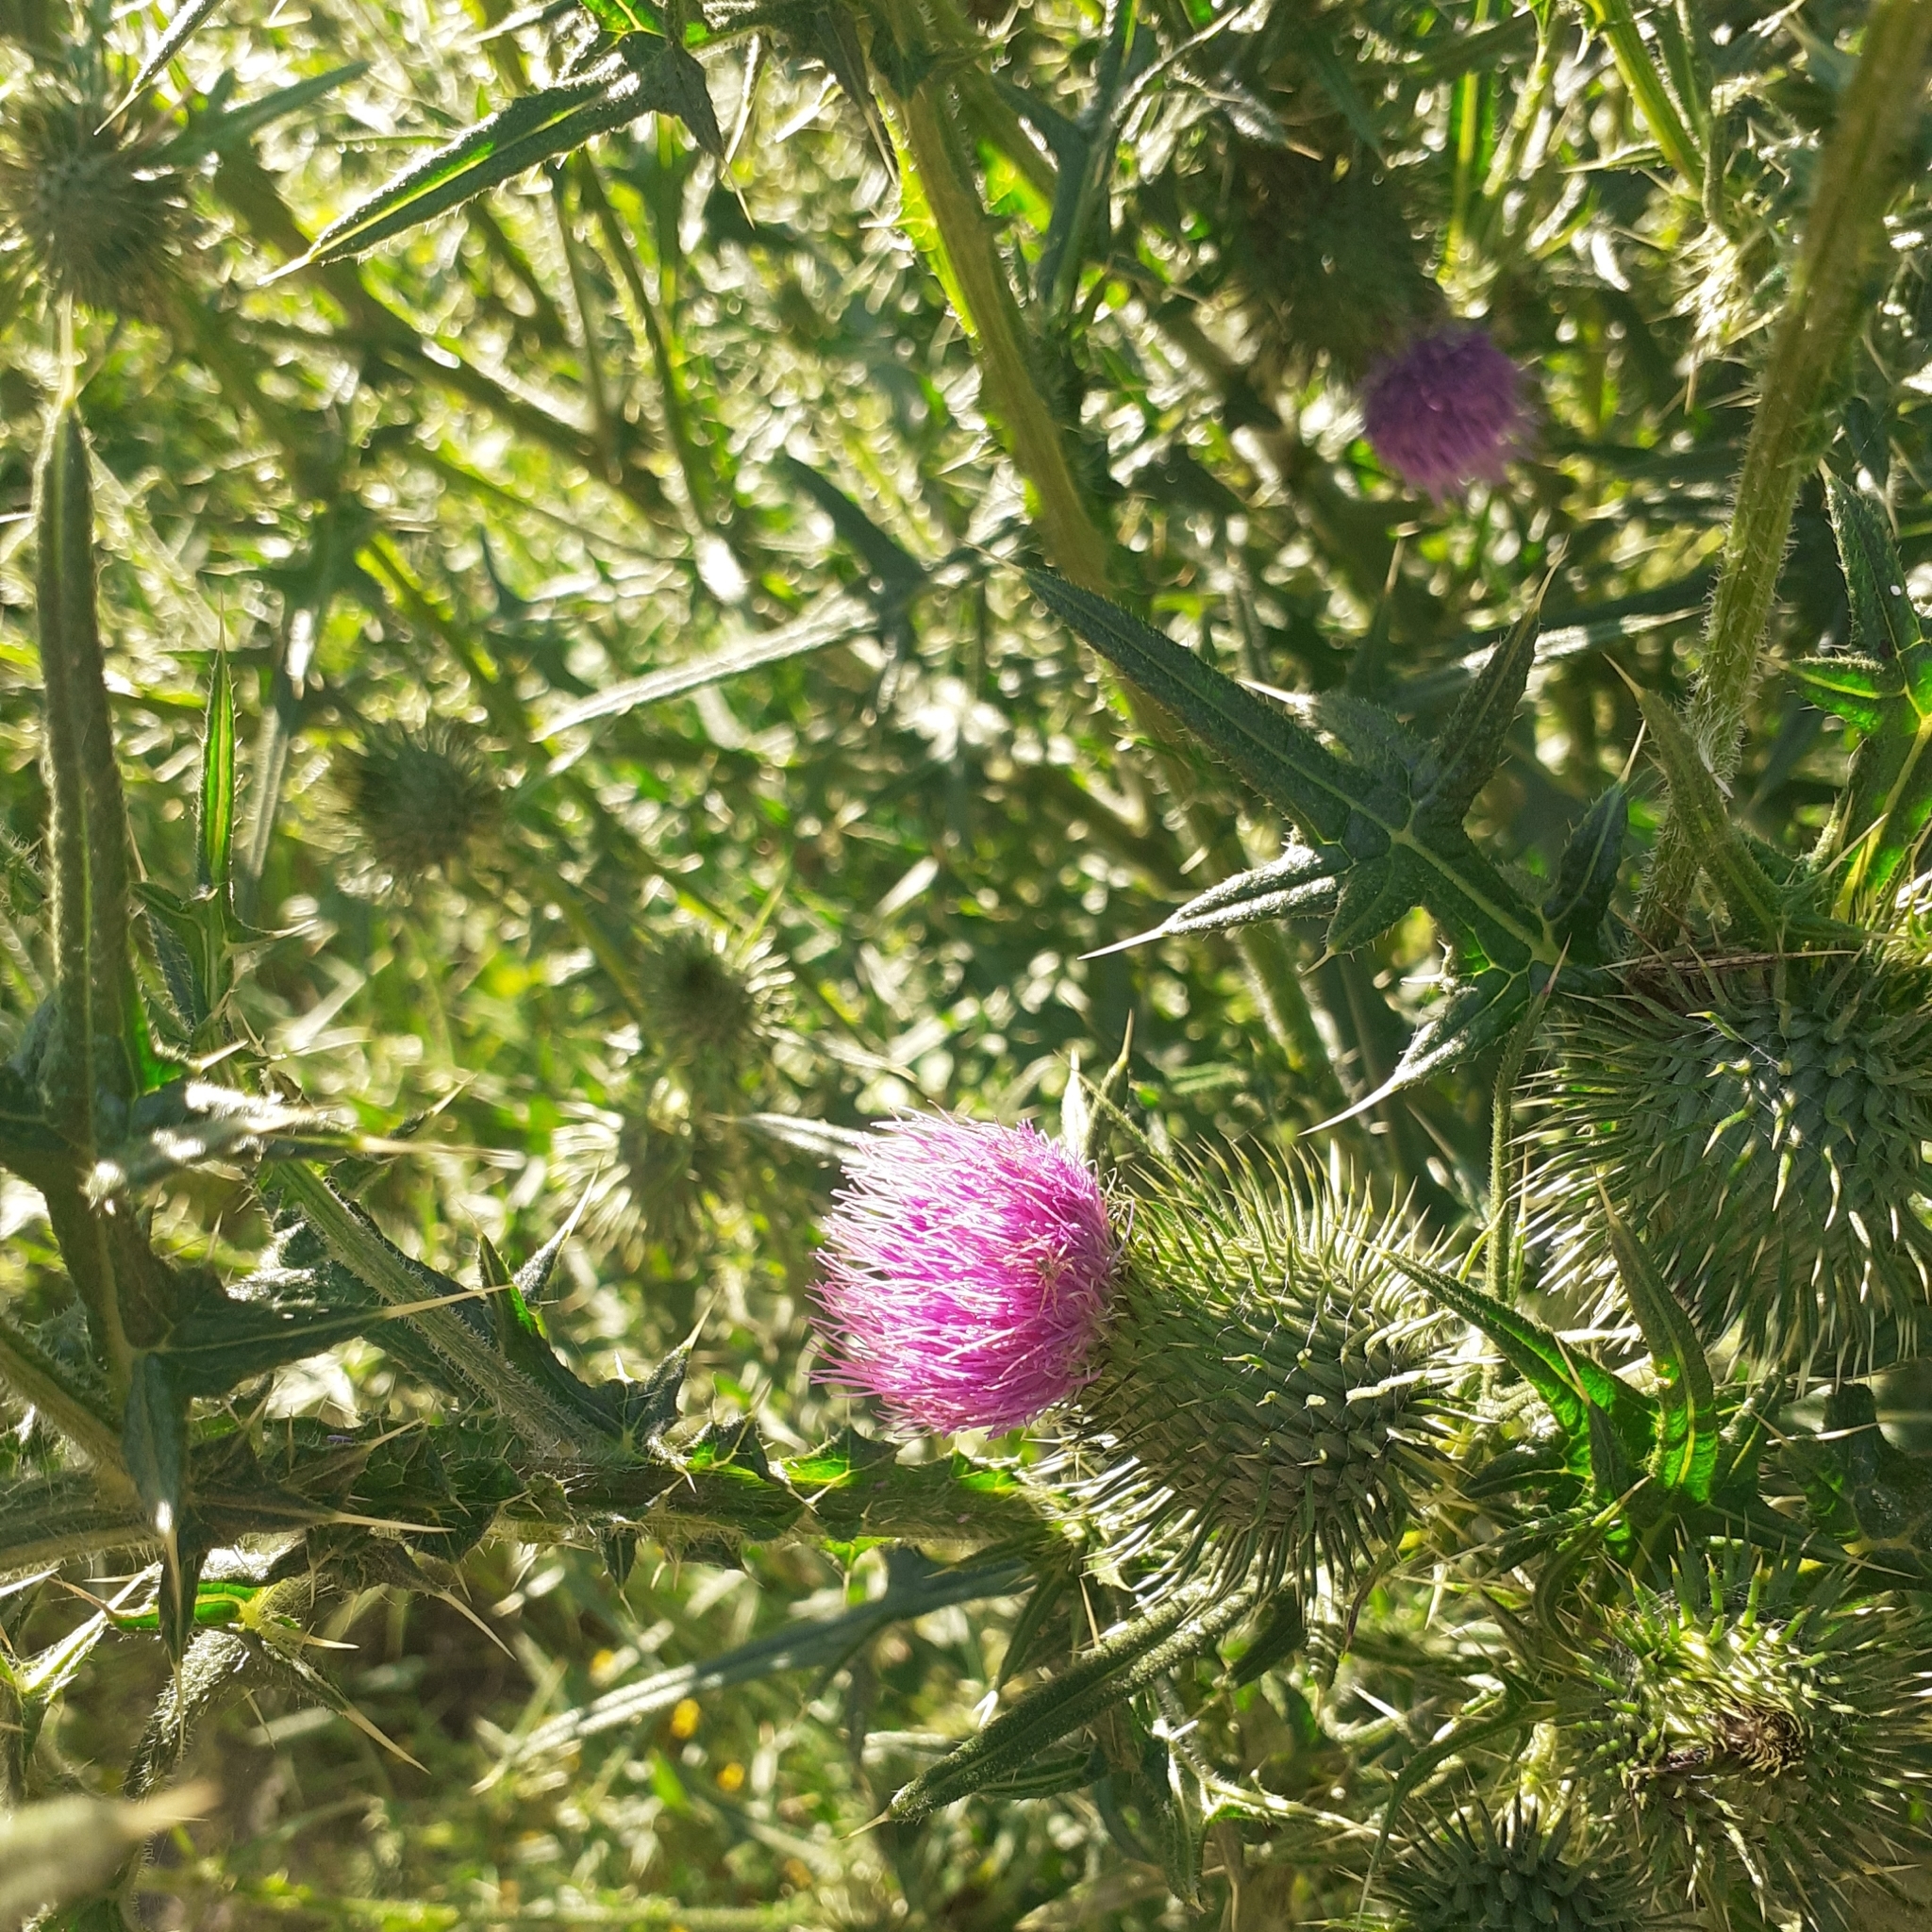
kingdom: Plantae
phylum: Tracheophyta
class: Magnoliopsida
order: Asterales
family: Asteraceae
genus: Cirsium
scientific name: Cirsium vulgare
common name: Bull thistle
